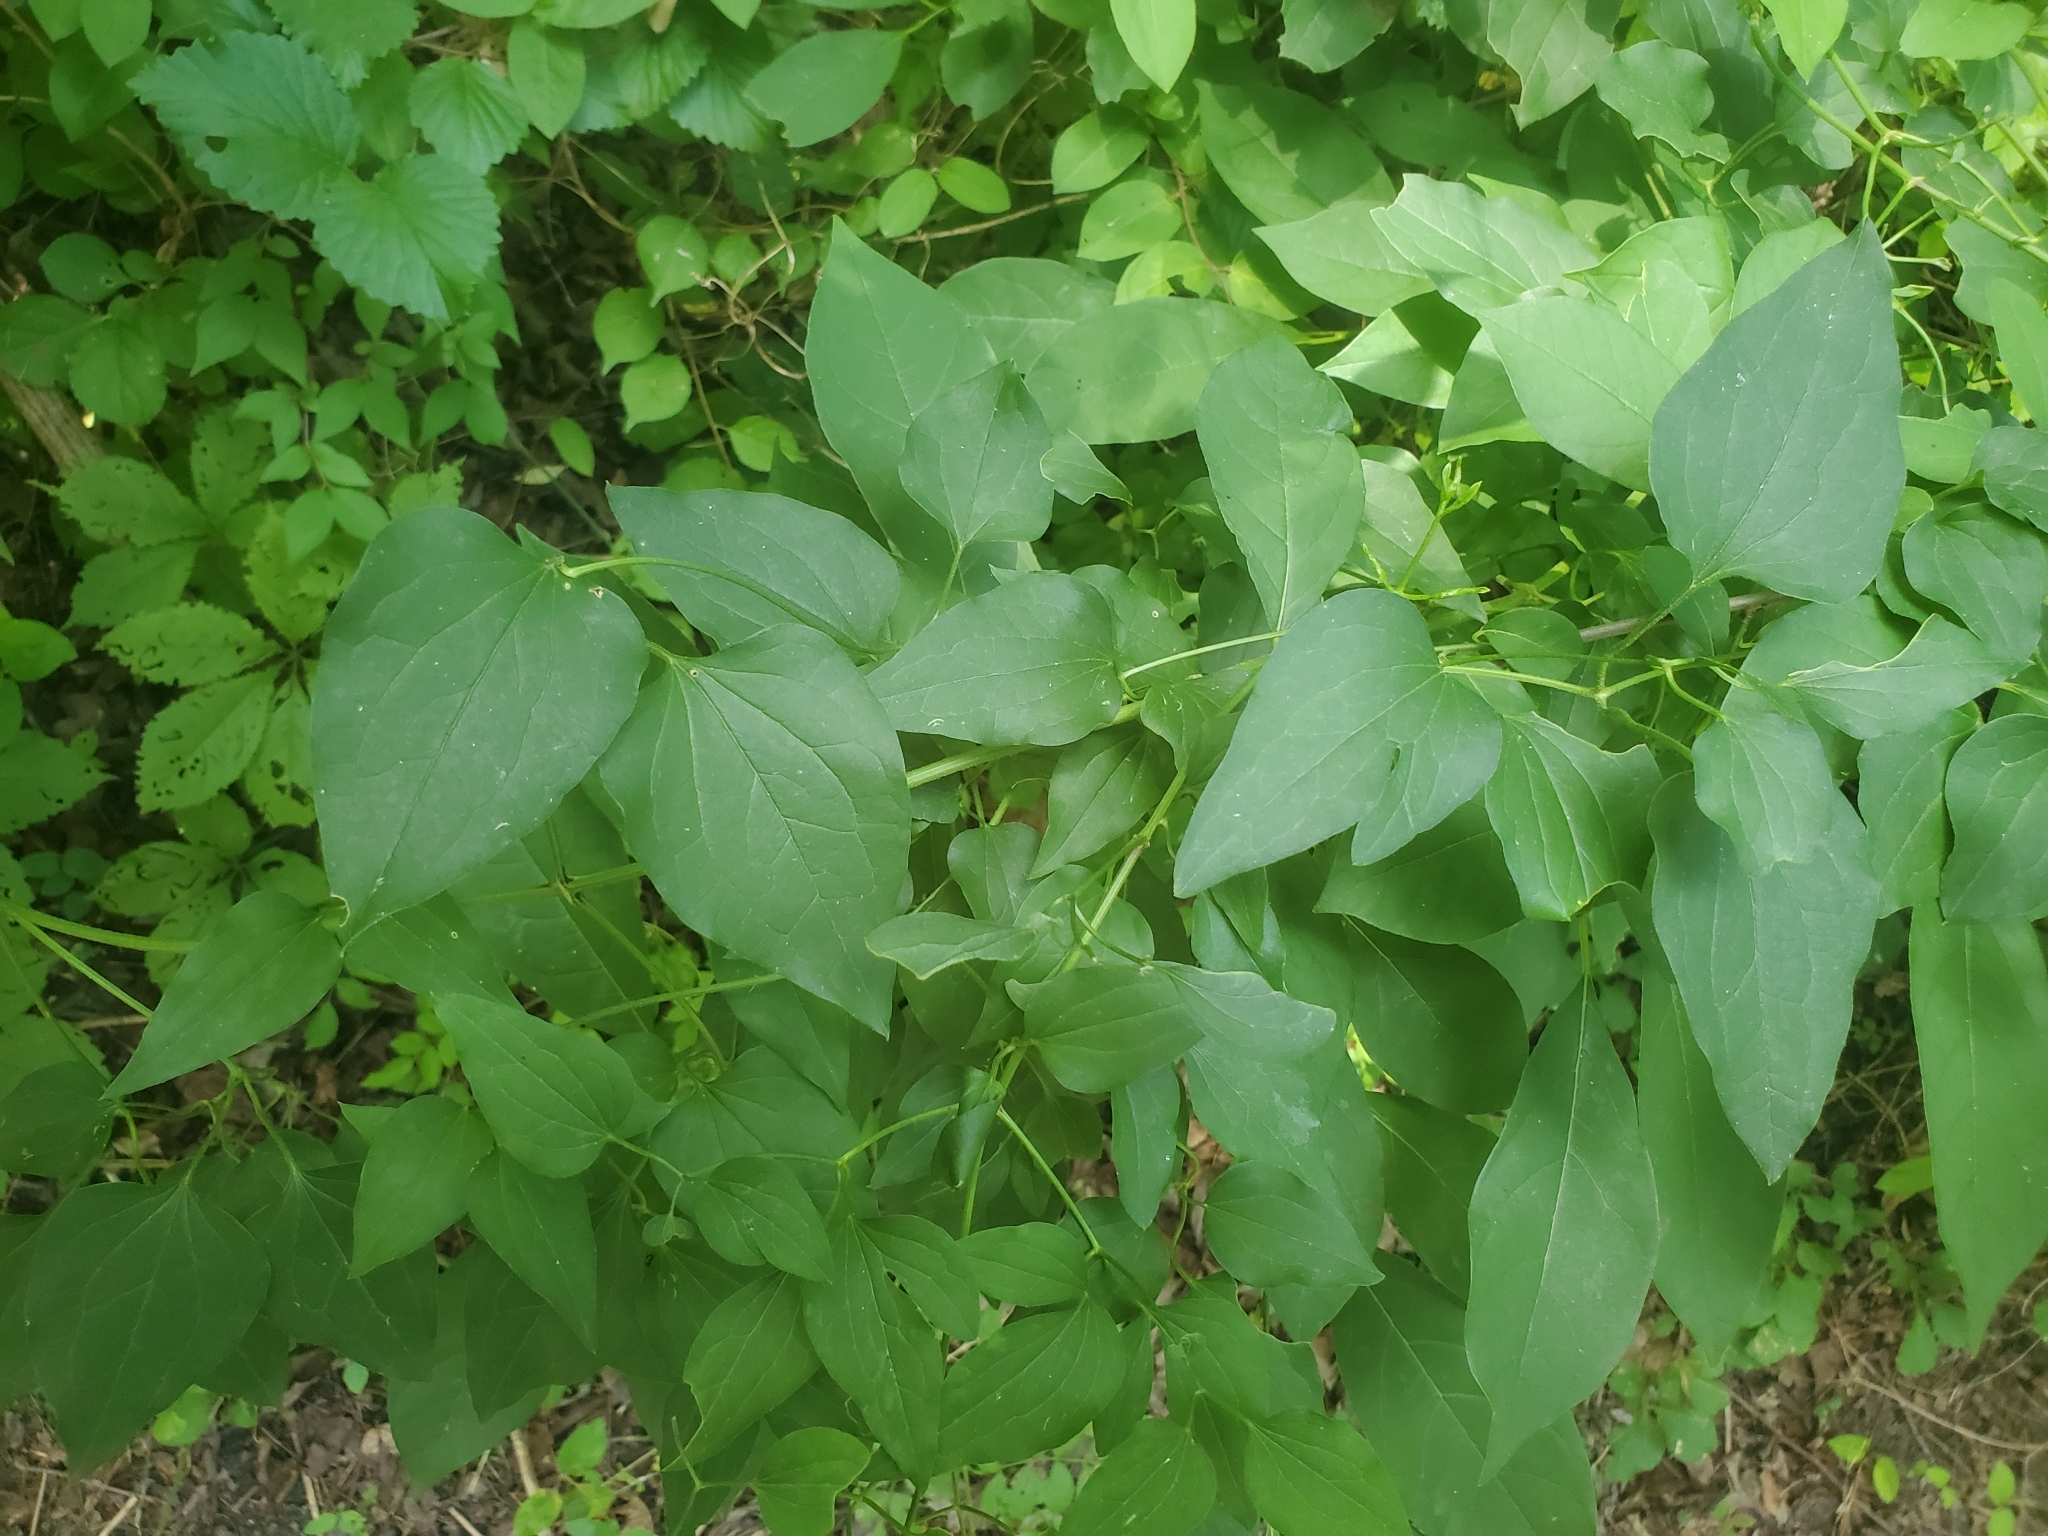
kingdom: Plantae
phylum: Tracheophyta
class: Magnoliopsida
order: Ranunculales
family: Ranunculaceae
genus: Clematis
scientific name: Clematis terniflora
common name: Sweet autumn clematis
